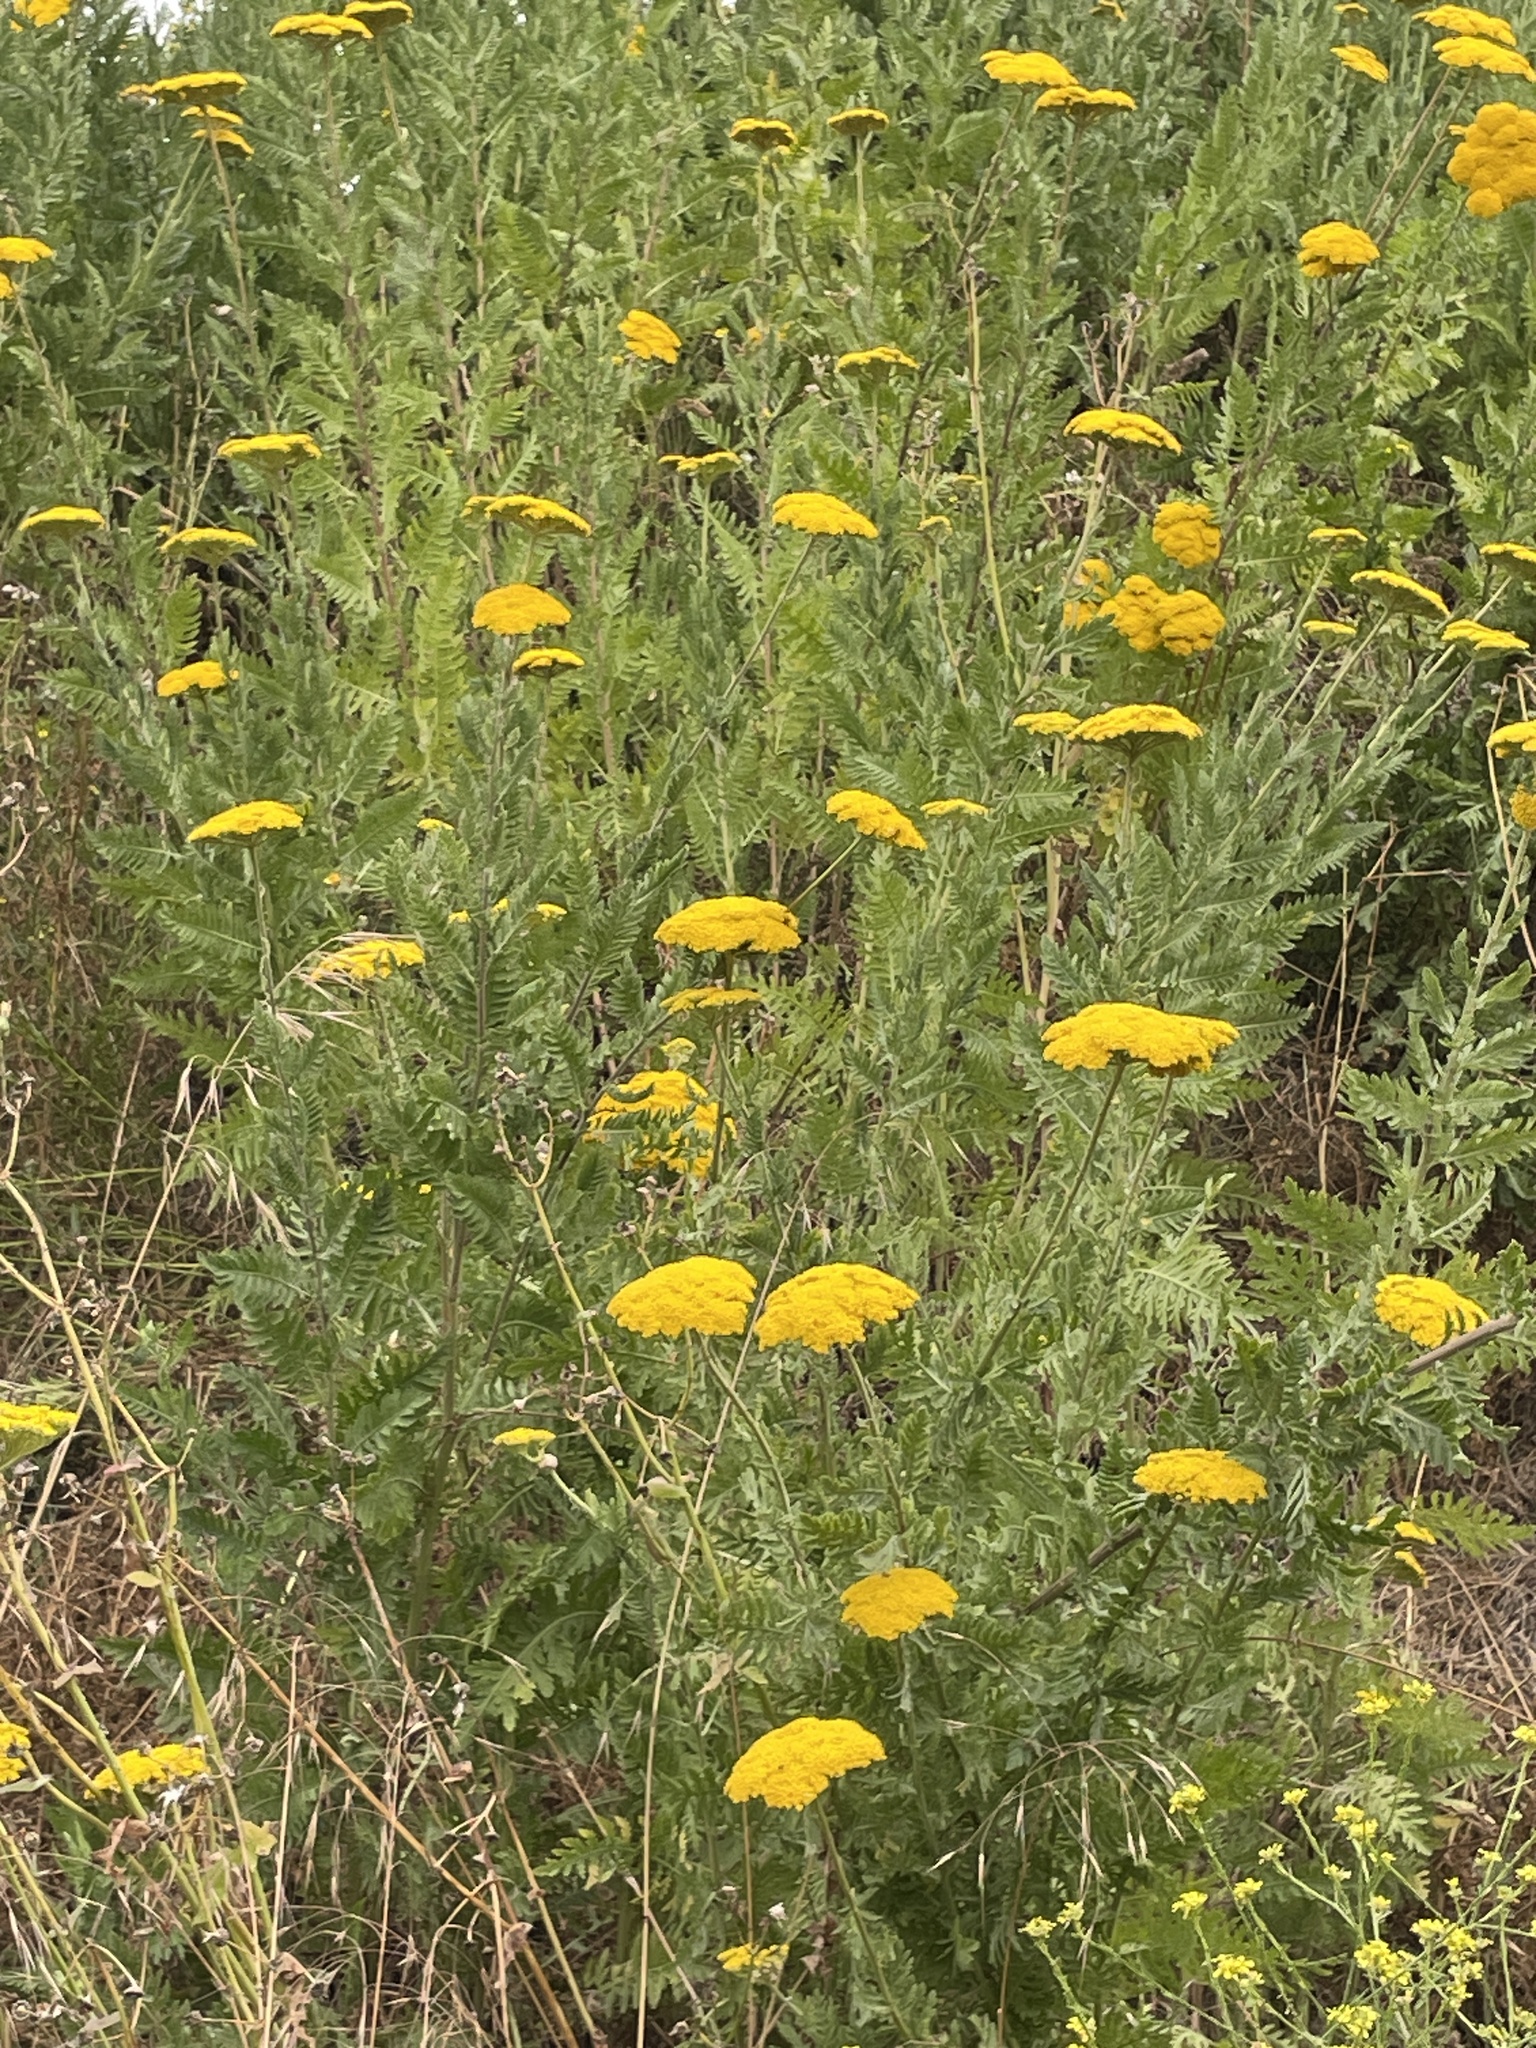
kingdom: Plantae
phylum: Tracheophyta
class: Magnoliopsida
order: Asterales
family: Asteraceae
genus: Achillea
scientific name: Achillea filipendulina
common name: Fernleaf yarrow
